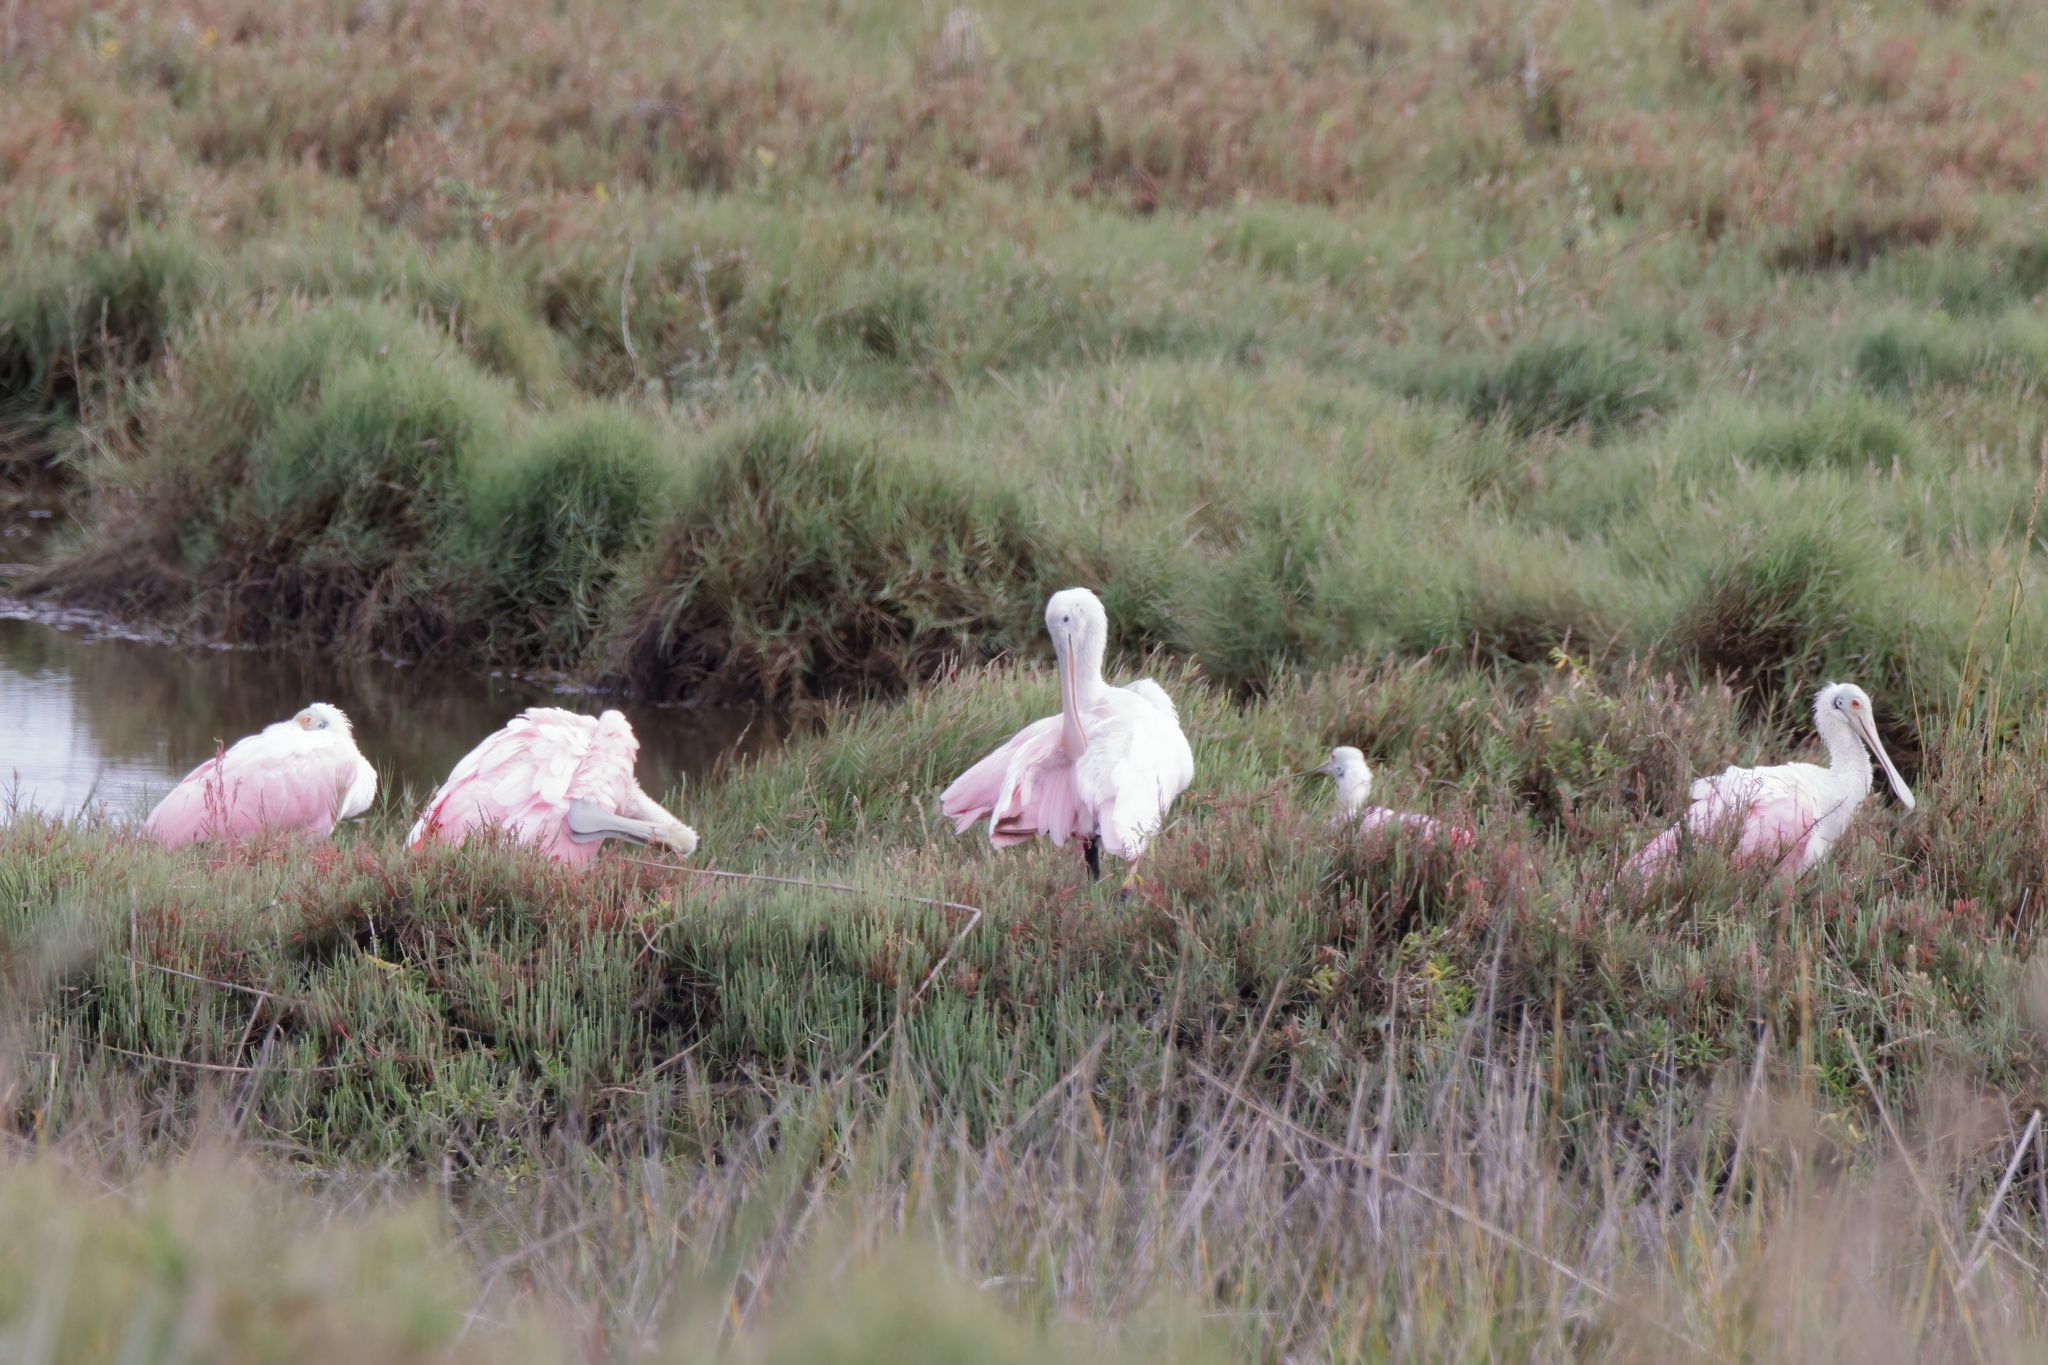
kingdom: Animalia
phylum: Chordata
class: Aves
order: Pelecaniformes
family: Threskiornithidae
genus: Platalea
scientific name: Platalea ajaja
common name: Roseate spoonbill
